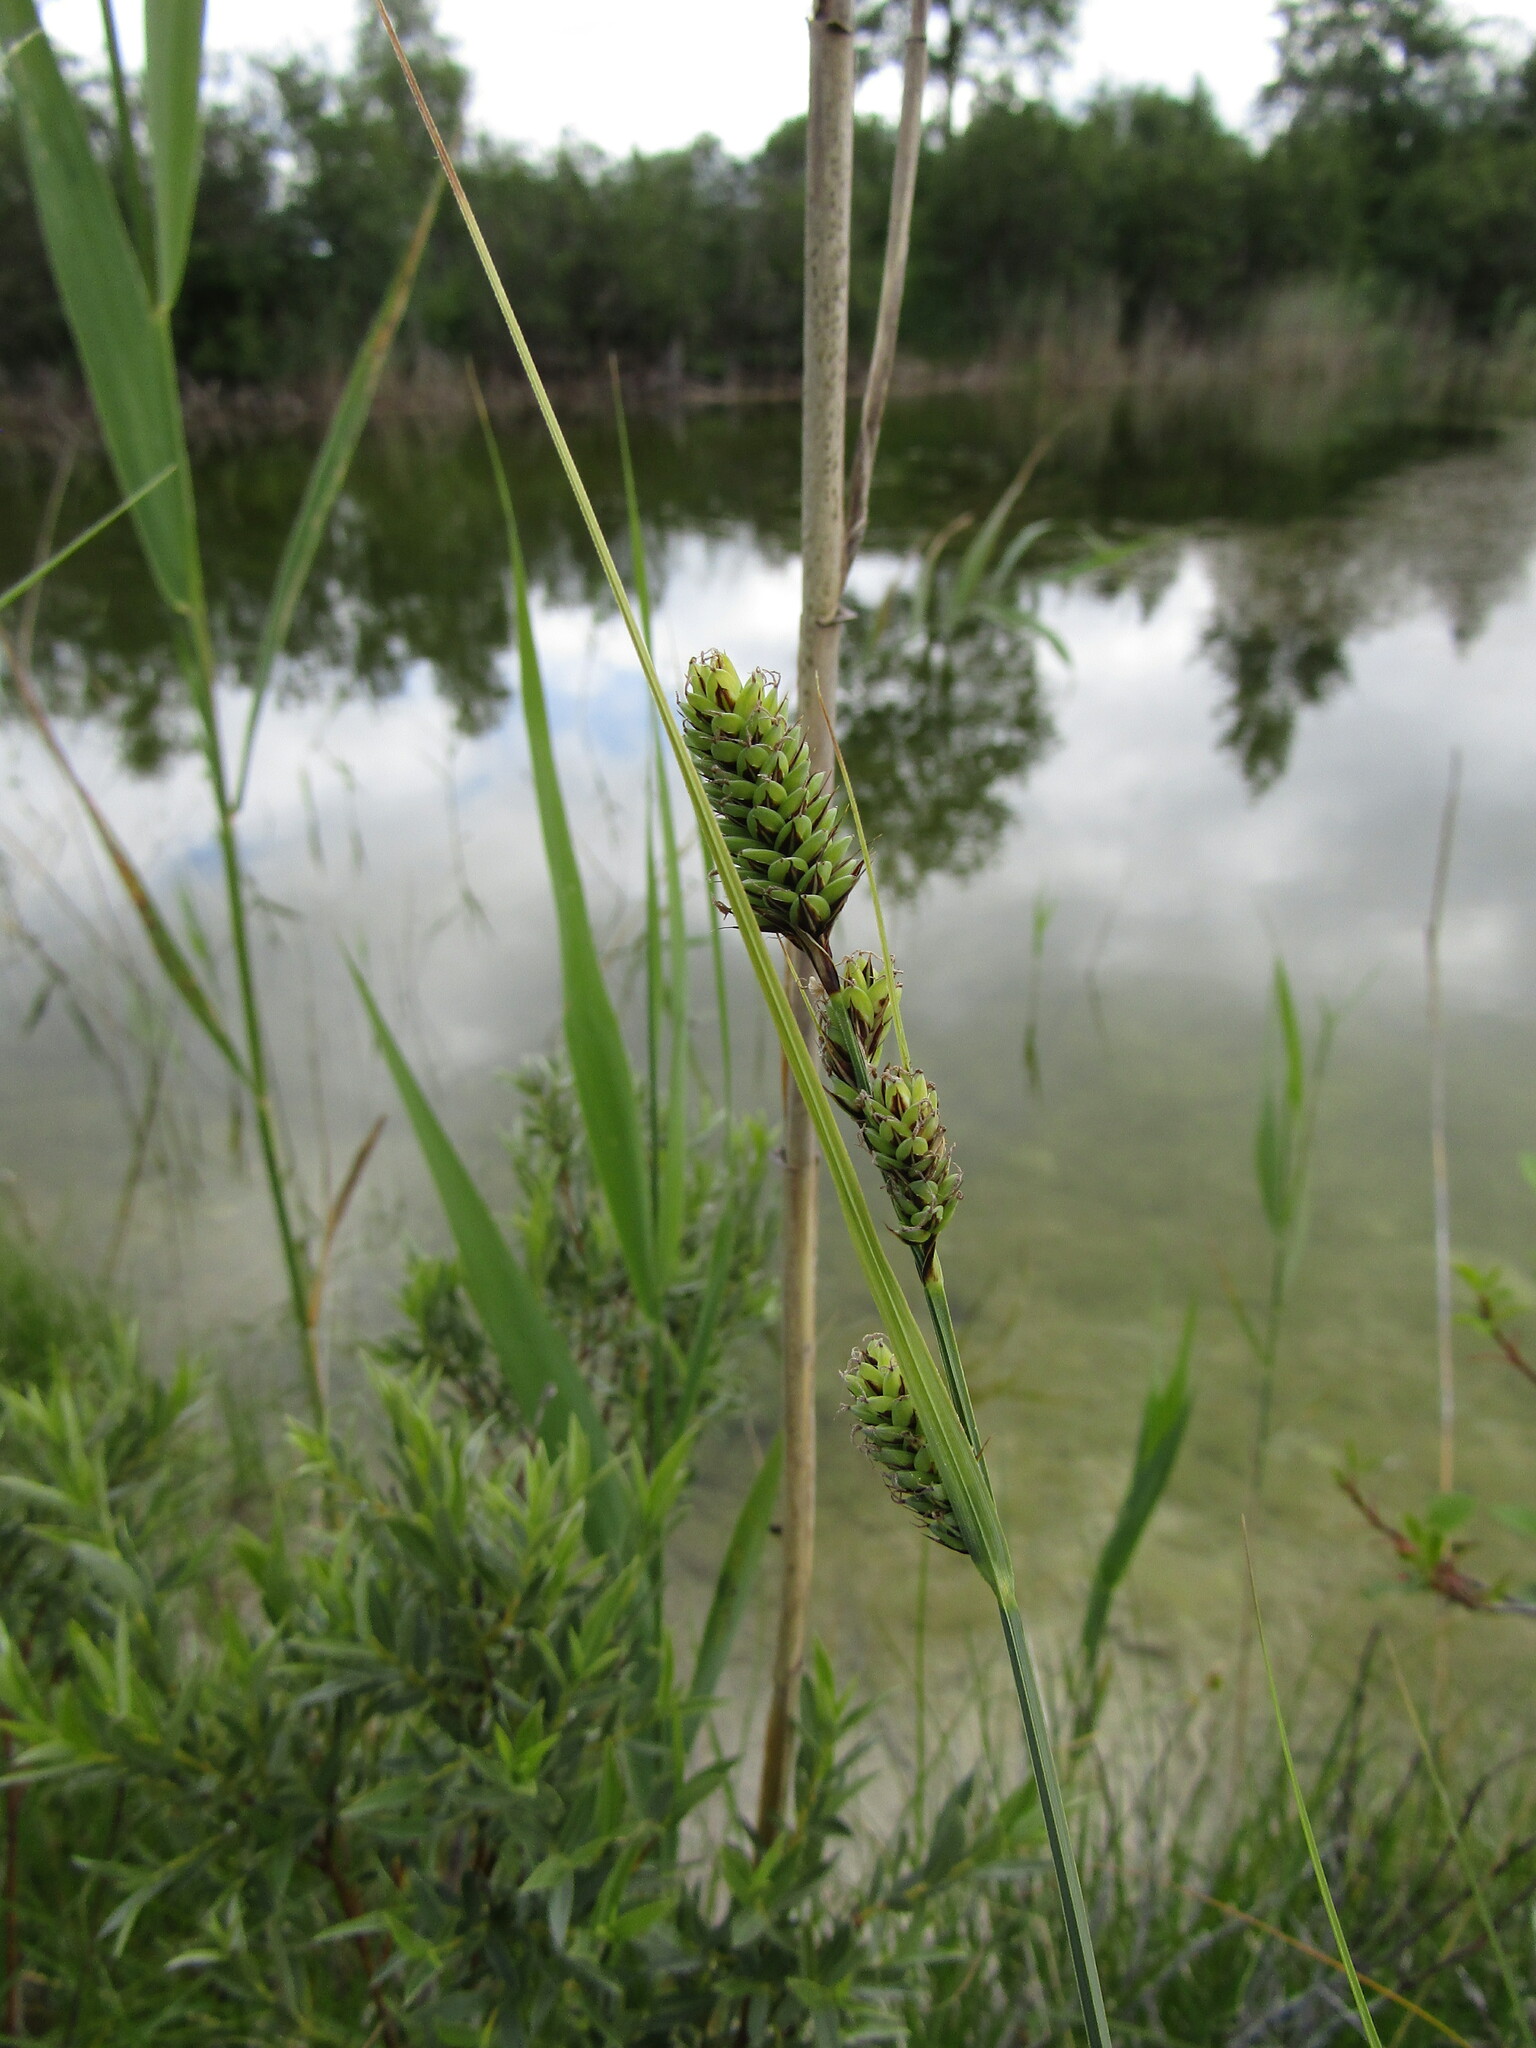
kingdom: Plantae
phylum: Tracheophyta
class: Liliopsida
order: Poales
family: Cyperaceae
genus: Carex
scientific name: Carex buxbaumii
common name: Club sedge
